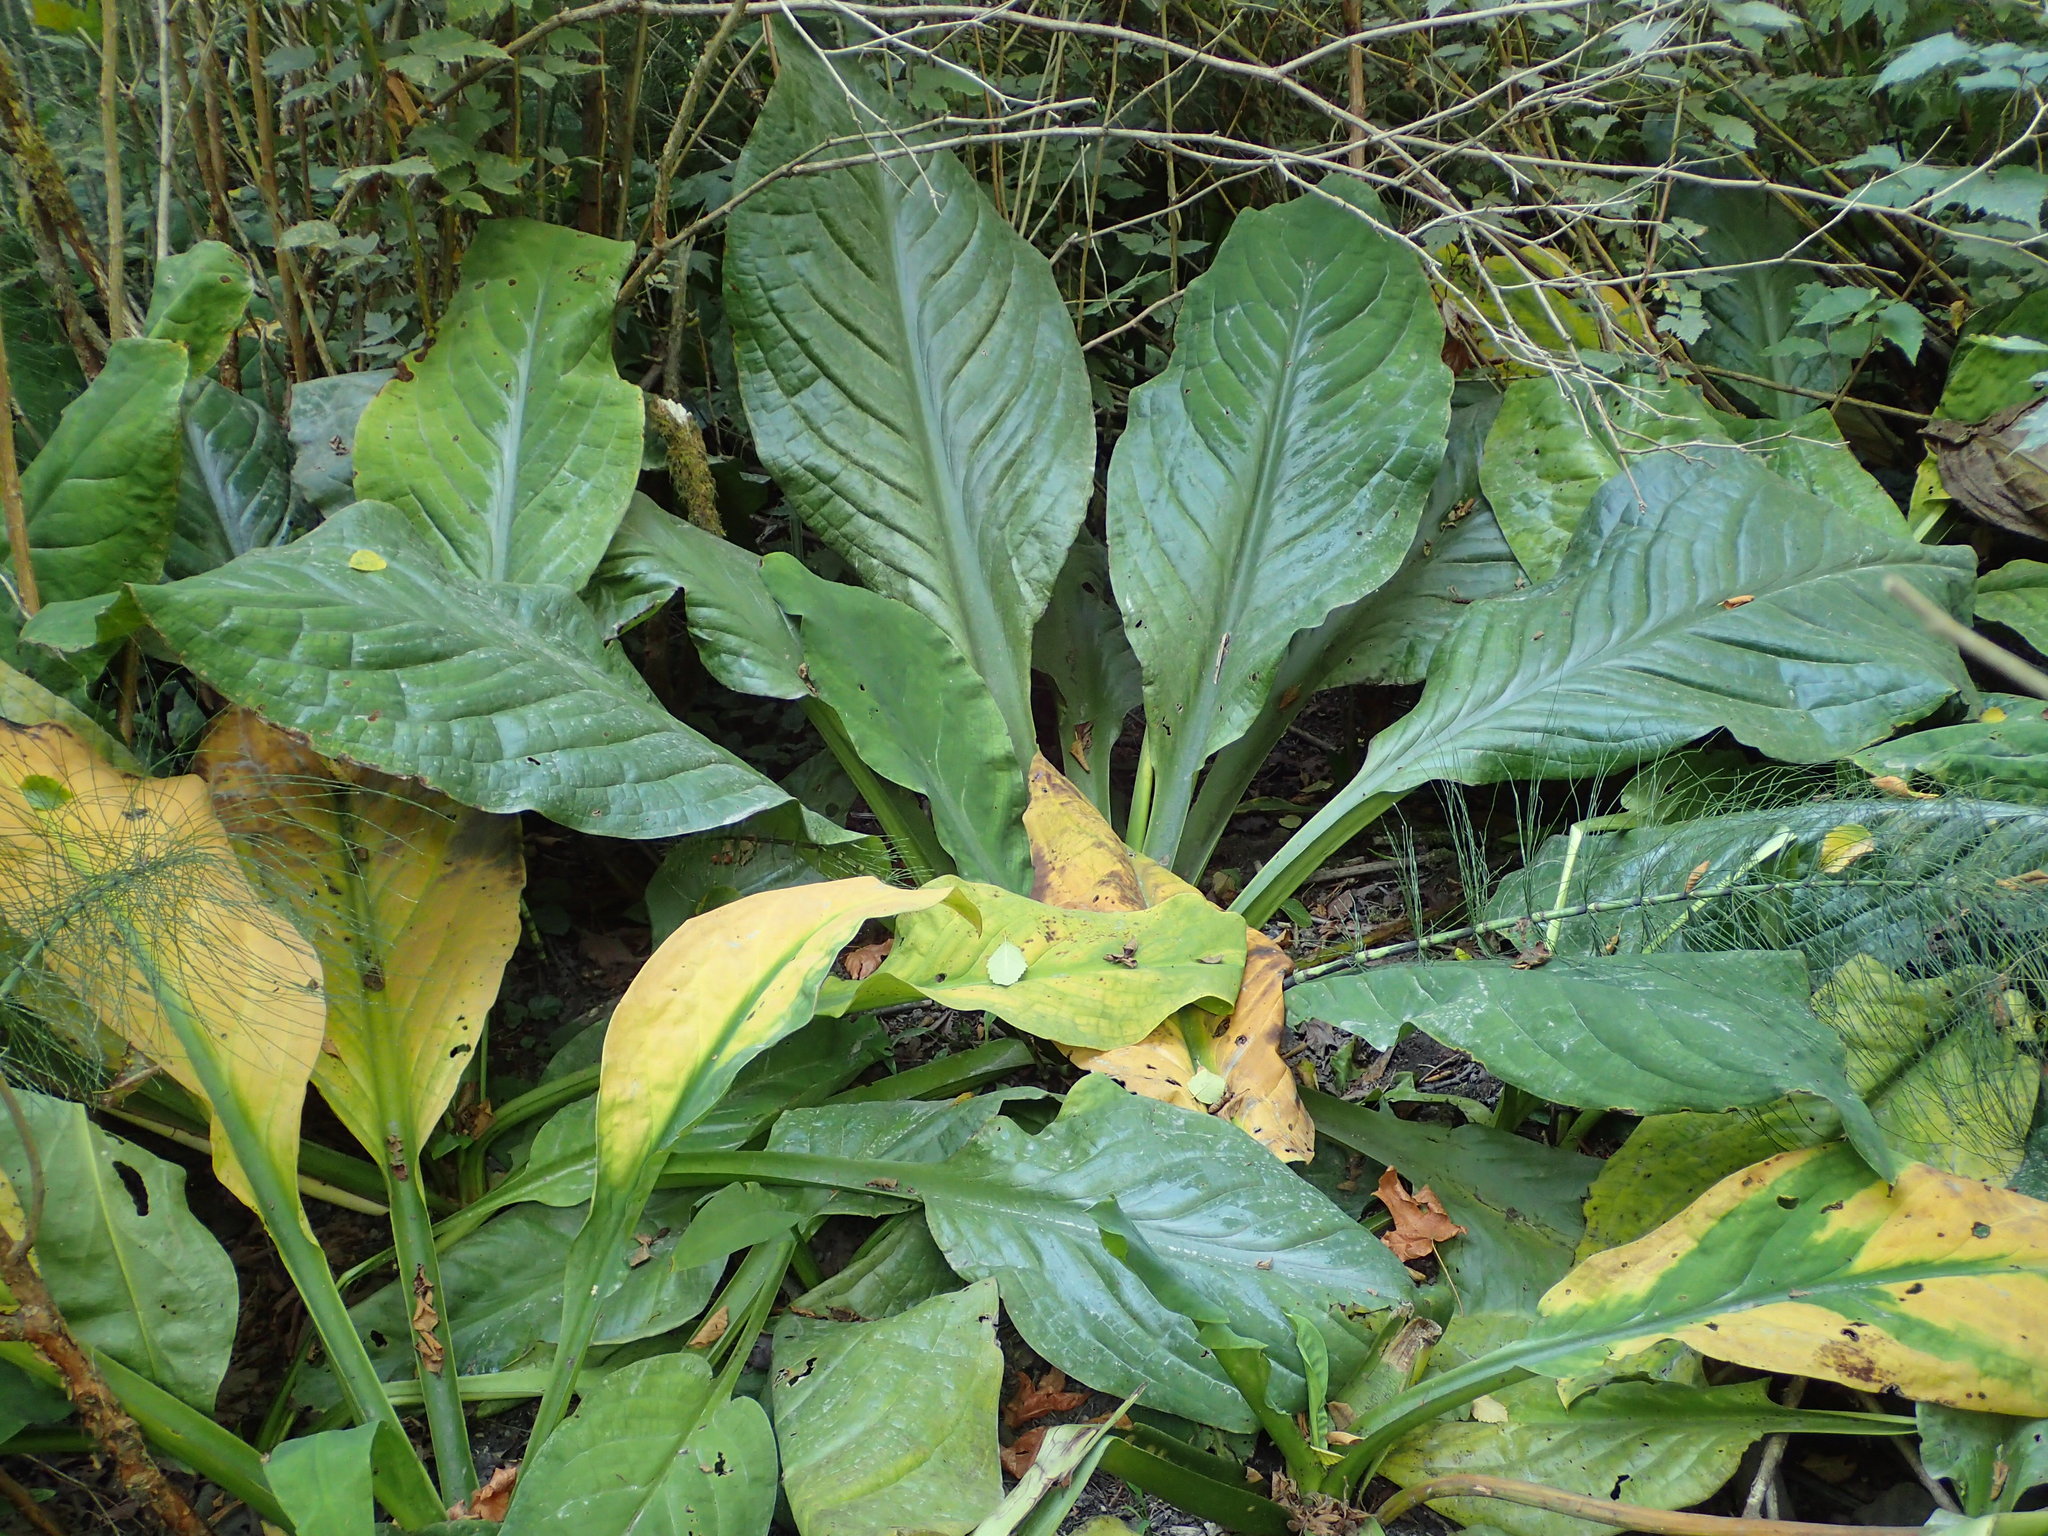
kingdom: Plantae
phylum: Tracheophyta
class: Liliopsida
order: Alismatales
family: Araceae
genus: Lysichiton
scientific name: Lysichiton americanus
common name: American skunk cabbage
